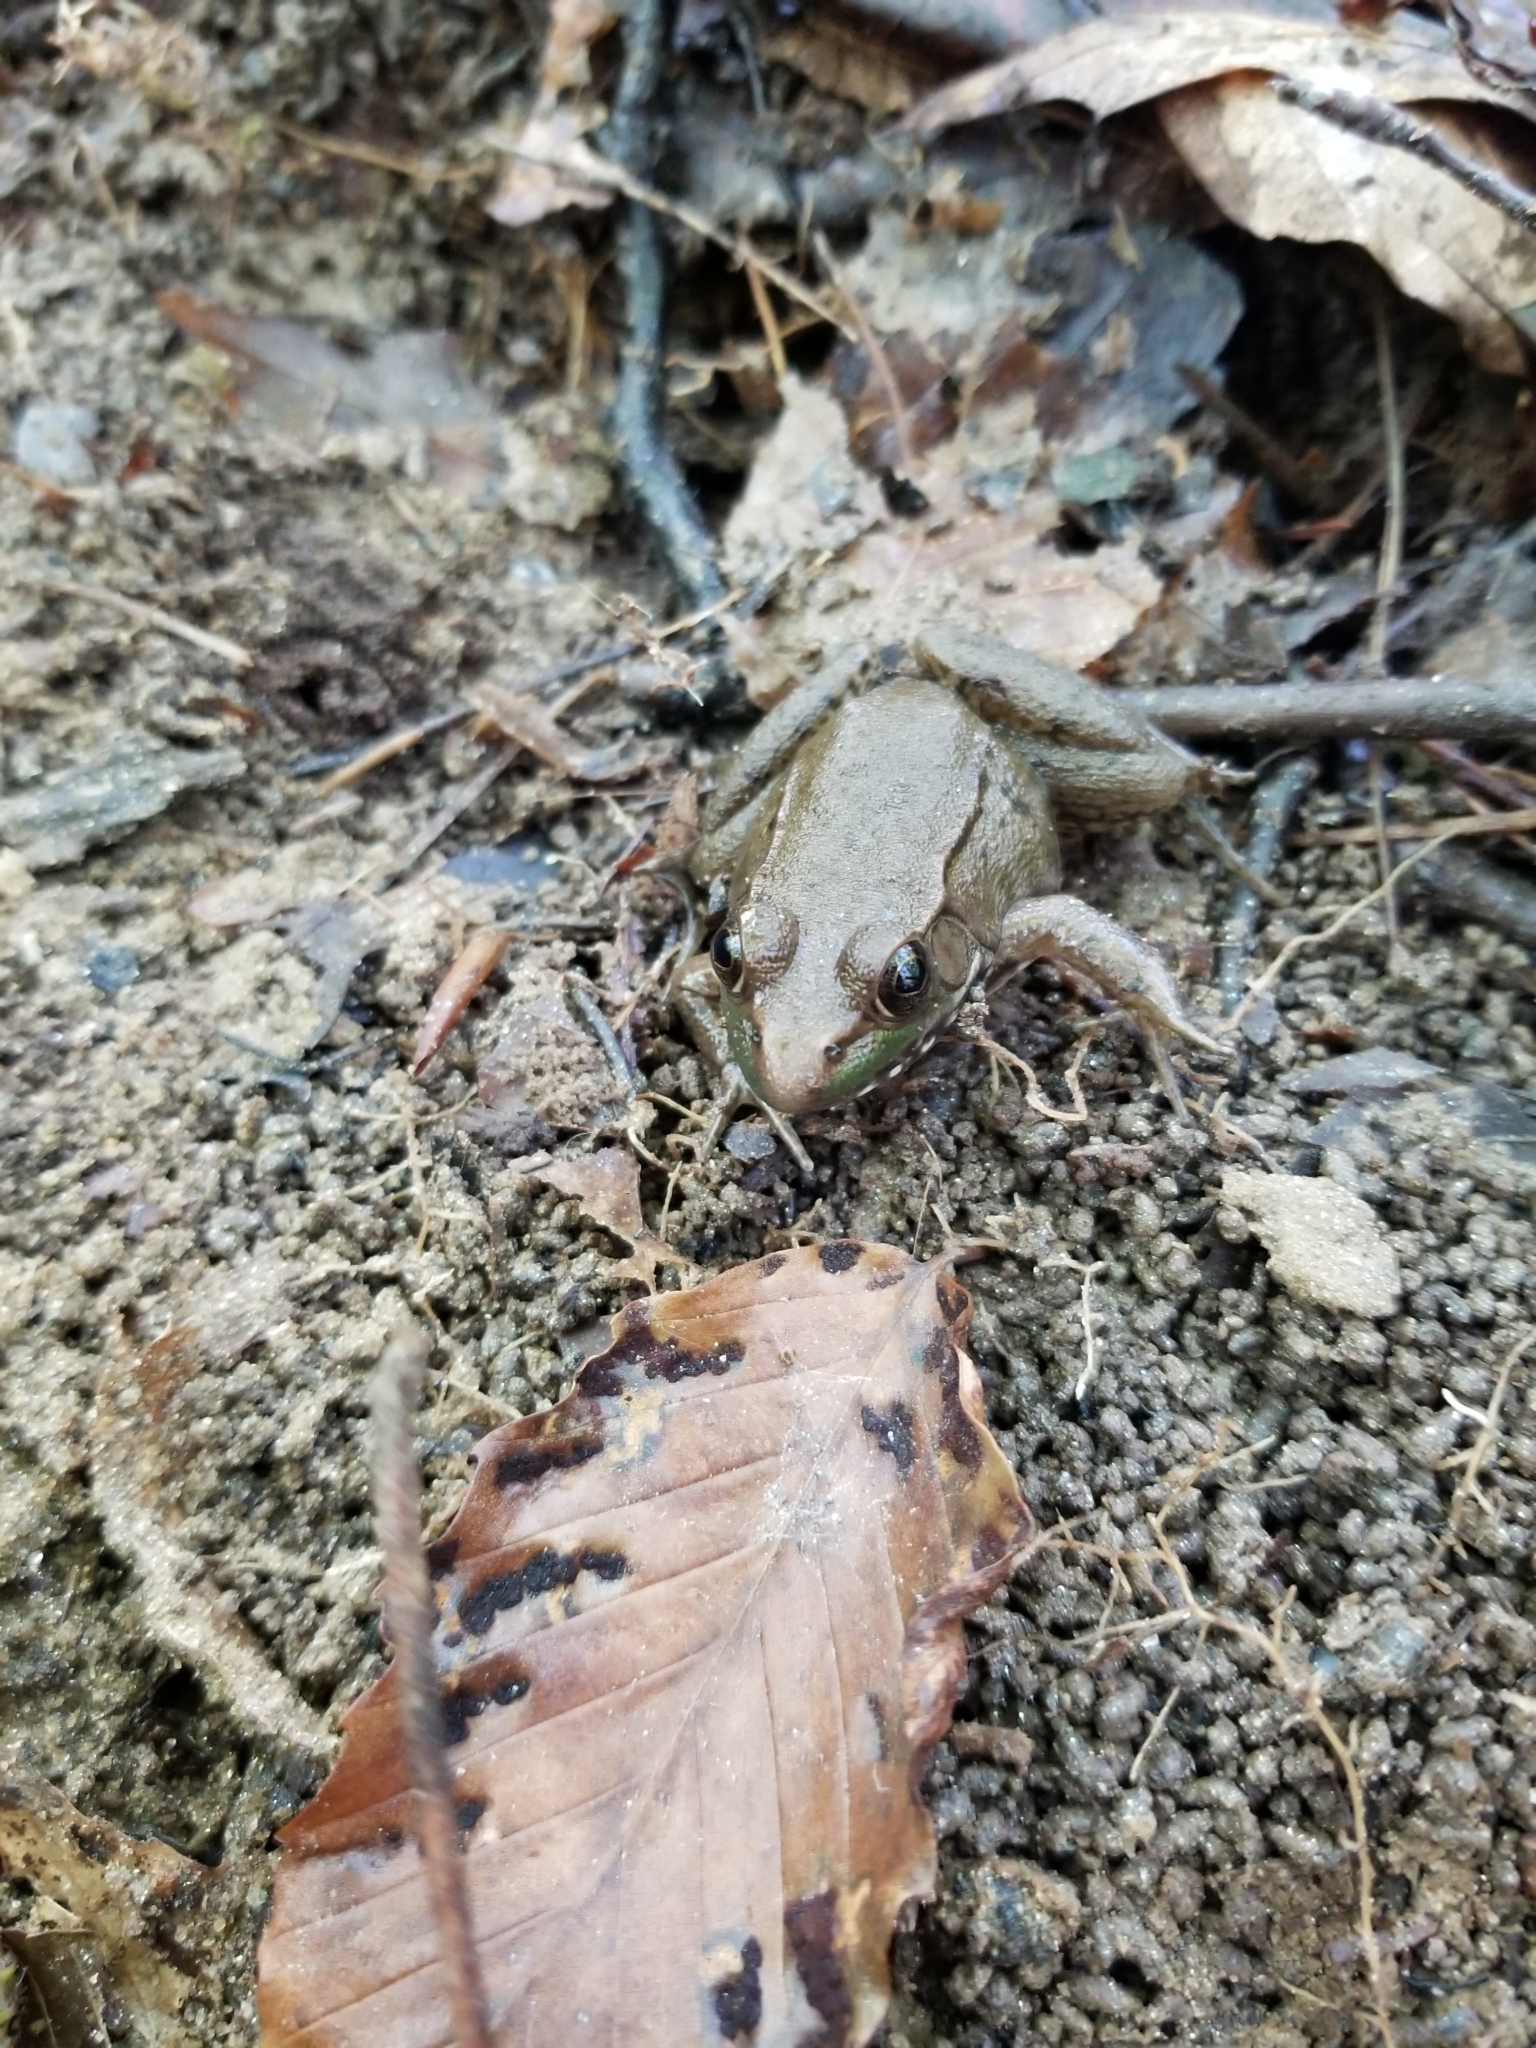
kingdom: Animalia
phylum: Chordata
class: Amphibia
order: Anura
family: Ranidae
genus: Lithobates
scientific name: Lithobates clamitans
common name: Green frog
